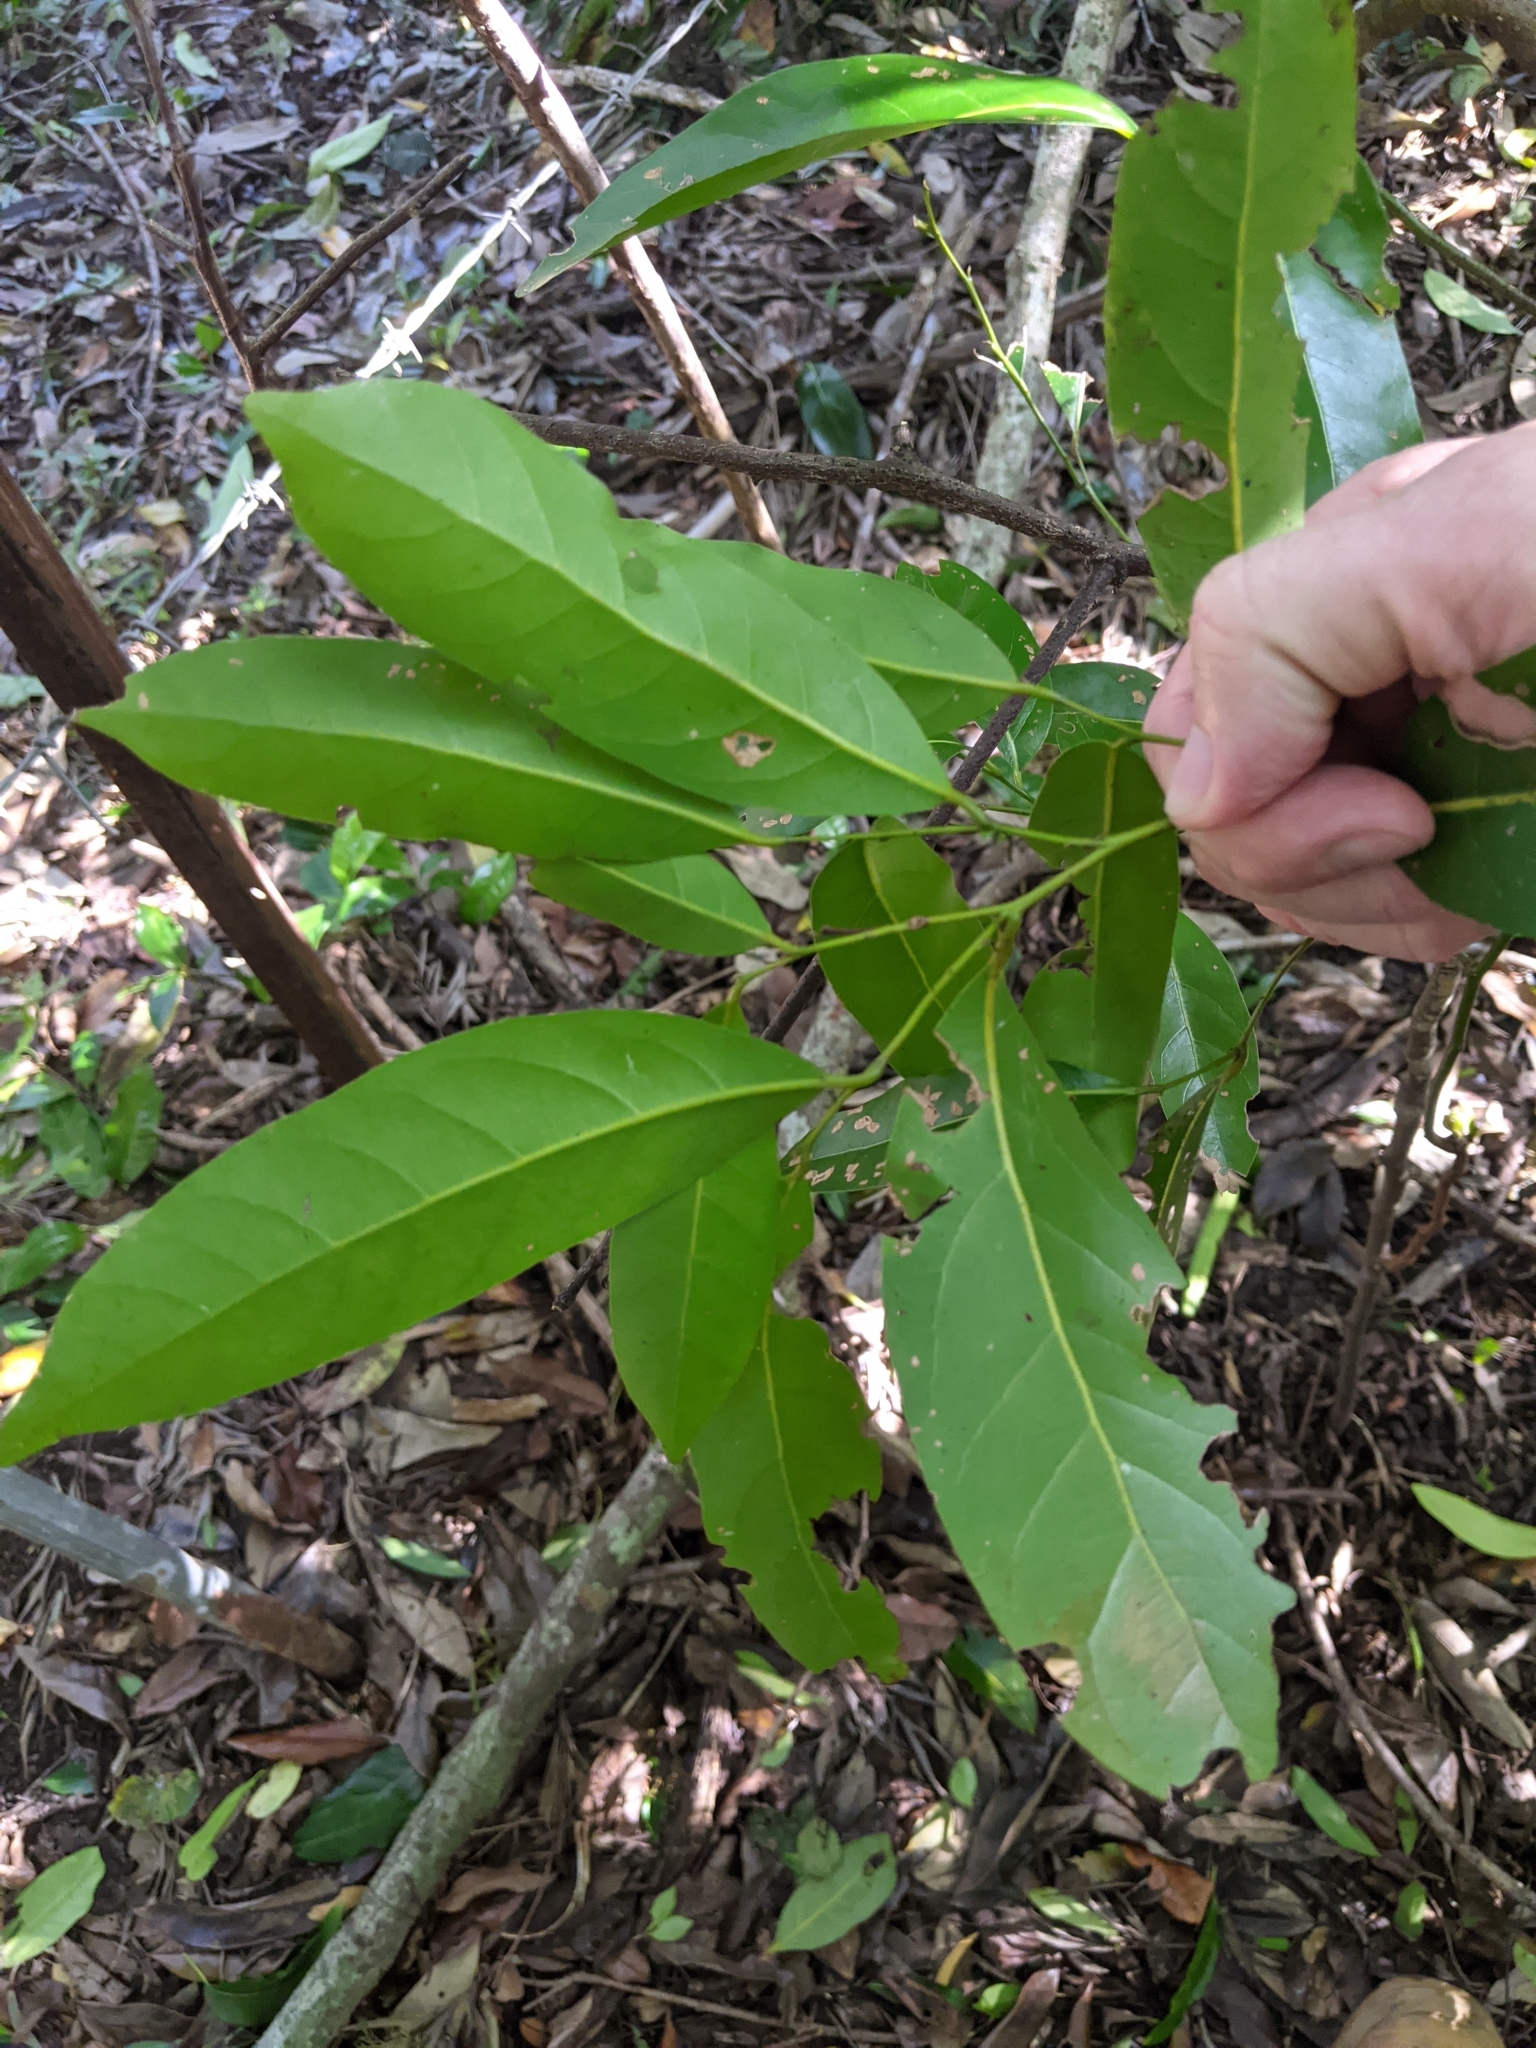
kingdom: Plantae
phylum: Tracheophyta
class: Magnoliopsida
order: Laurales
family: Lauraceae
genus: Cryptocarya
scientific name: Cryptocarya sclerophylla
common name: Totempole
